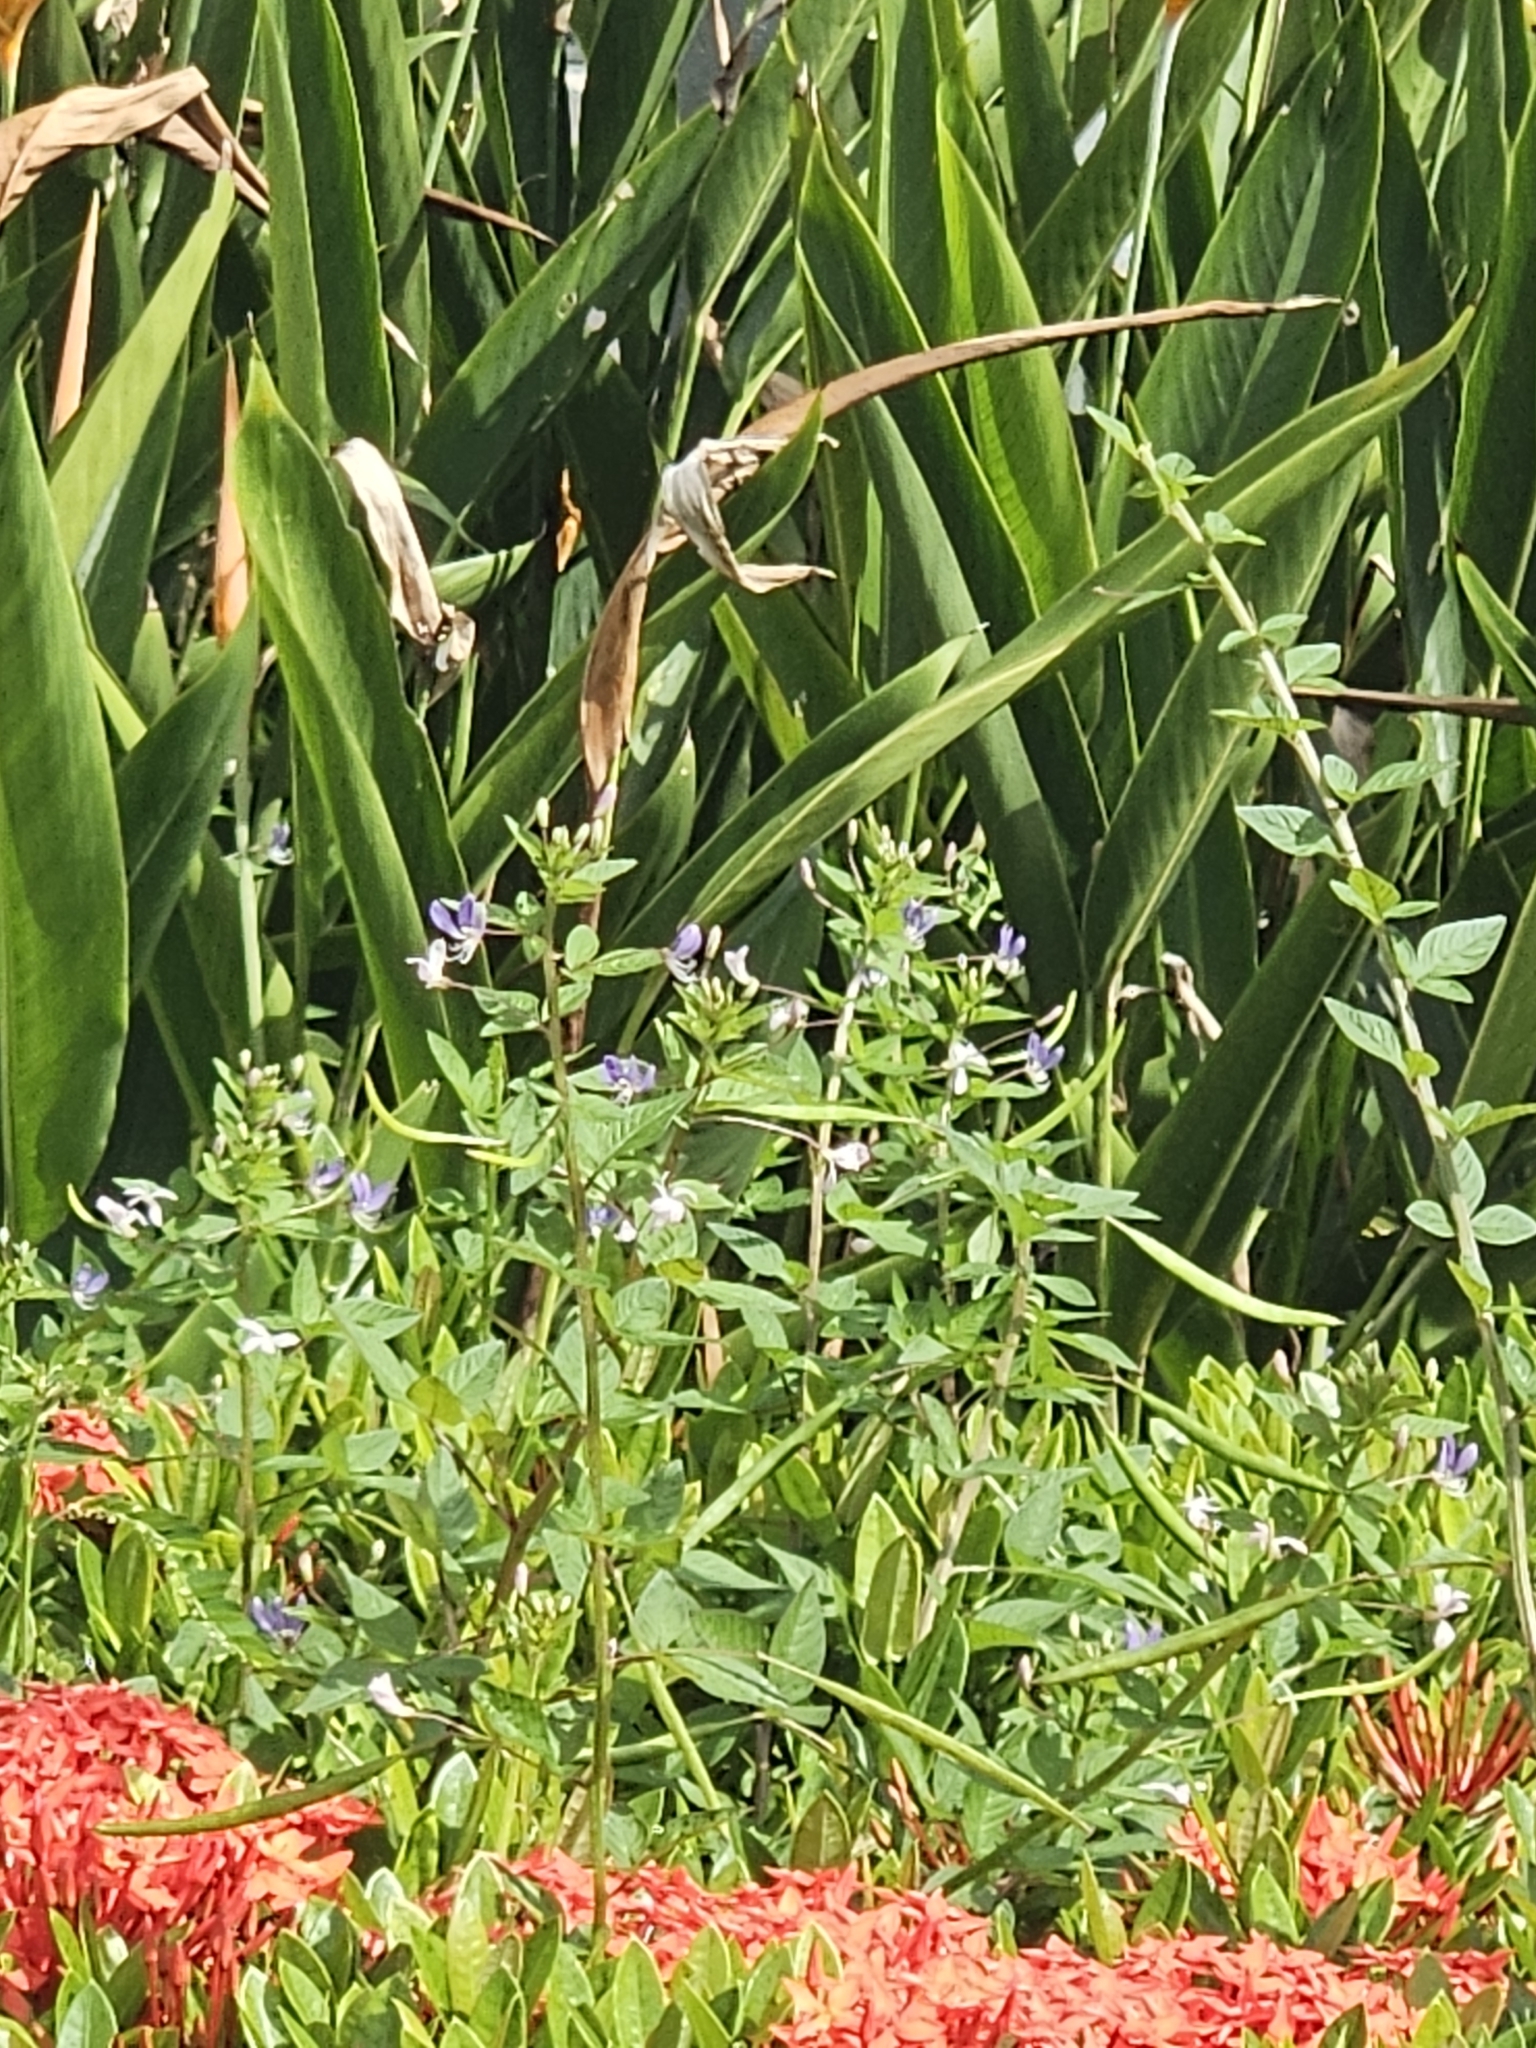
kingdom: Plantae
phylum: Tracheophyta
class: Magnoliopsida
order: Brassicales
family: Cleomaceae
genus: Sieruela
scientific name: Sieruela rutidosperma
